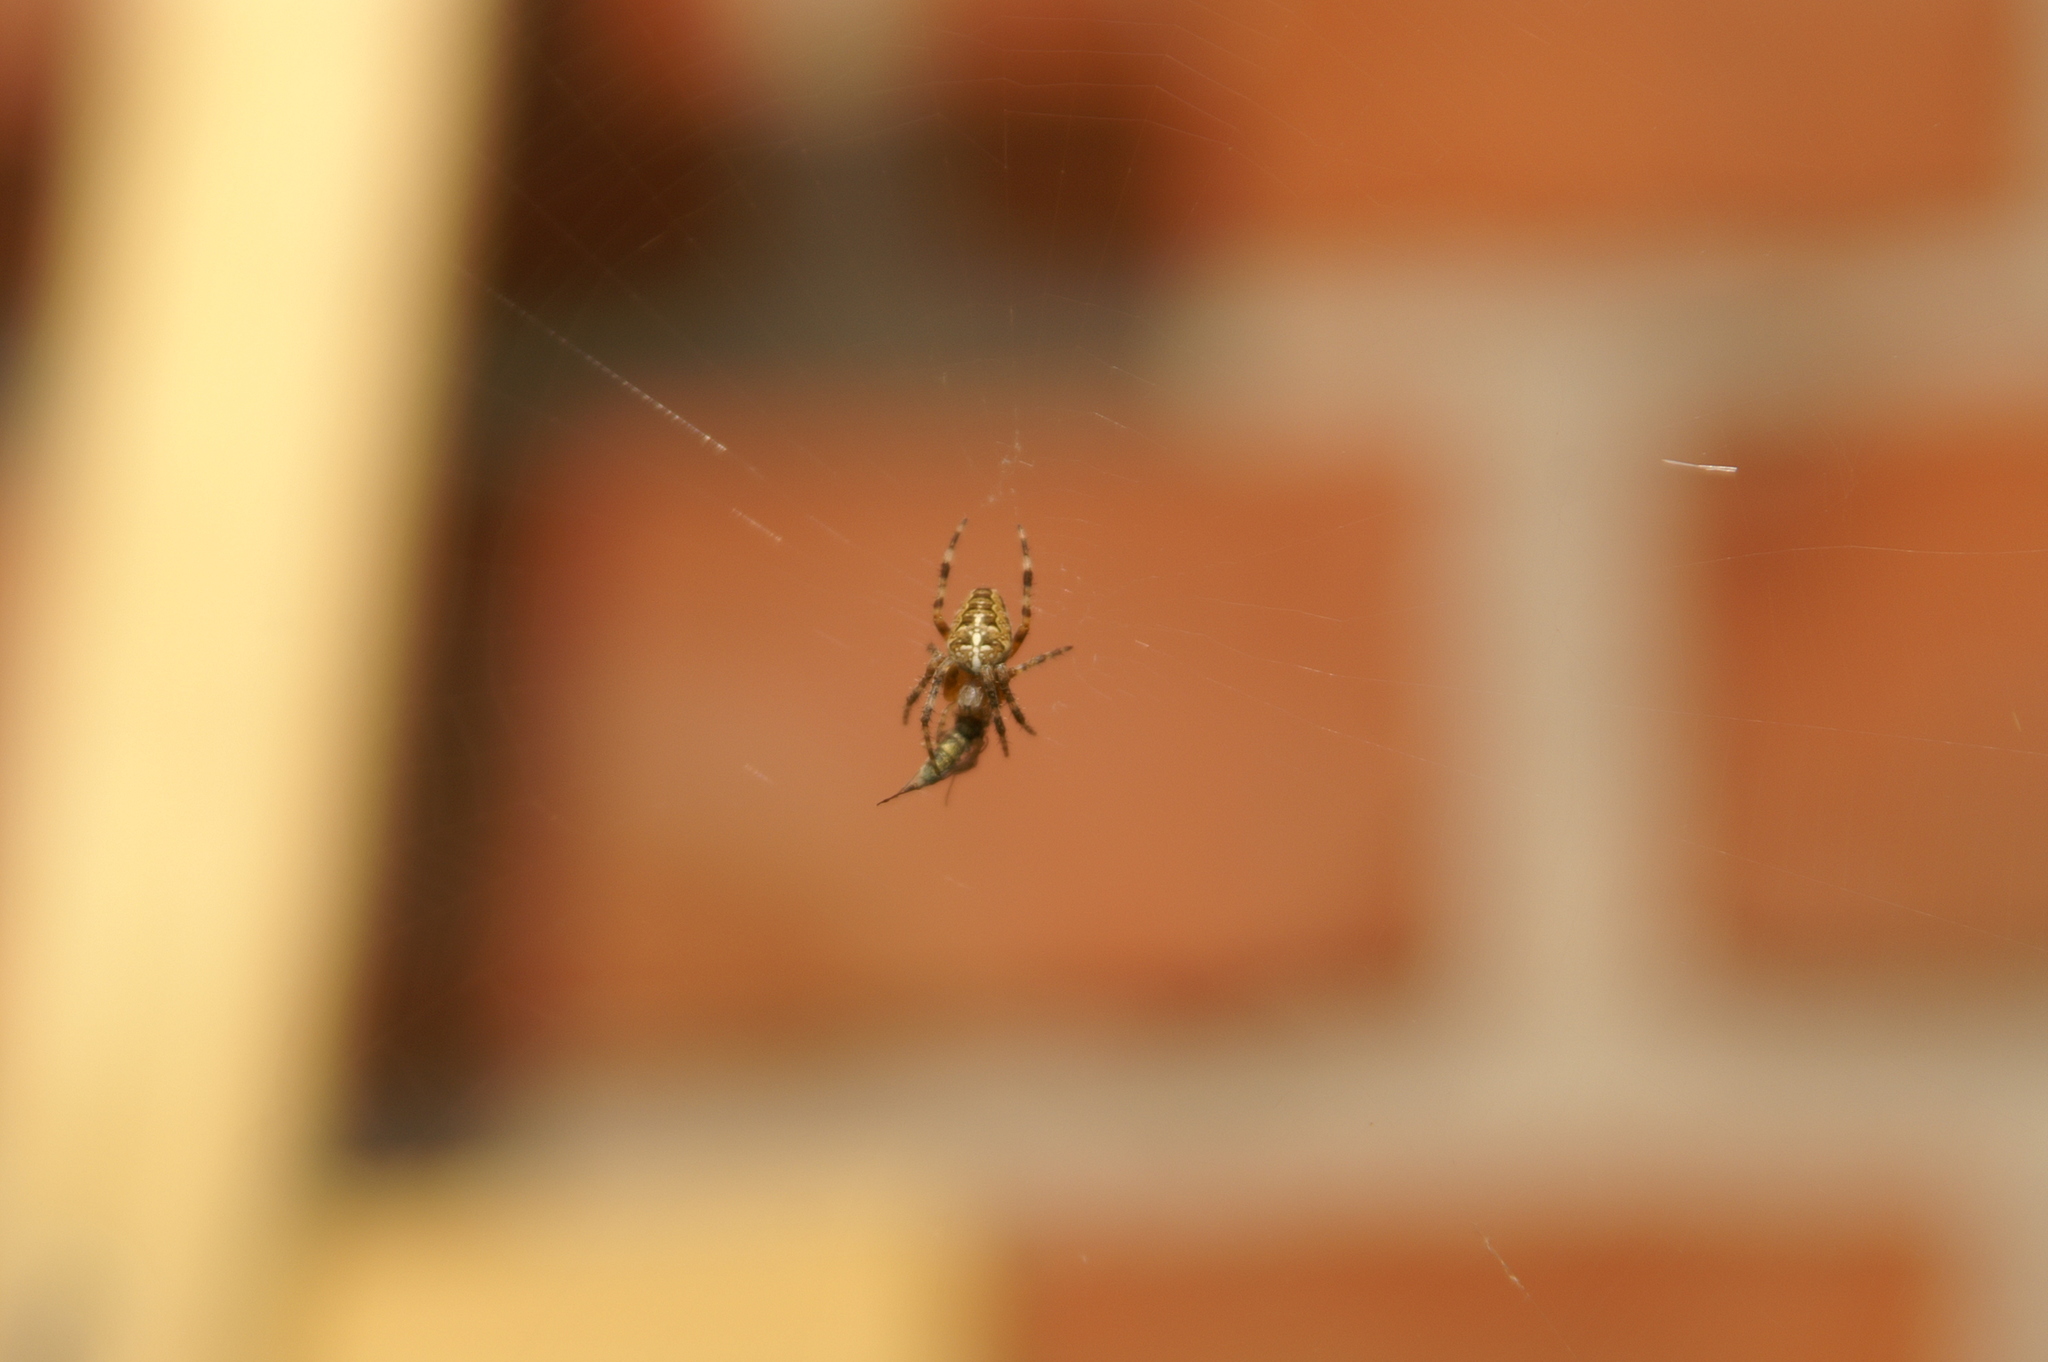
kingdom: Animalia
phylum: Arthropoda
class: Arachnida
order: Araneae
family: Araneidae
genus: Araneus
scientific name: Araneus diadematus
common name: Cross orbweaver
